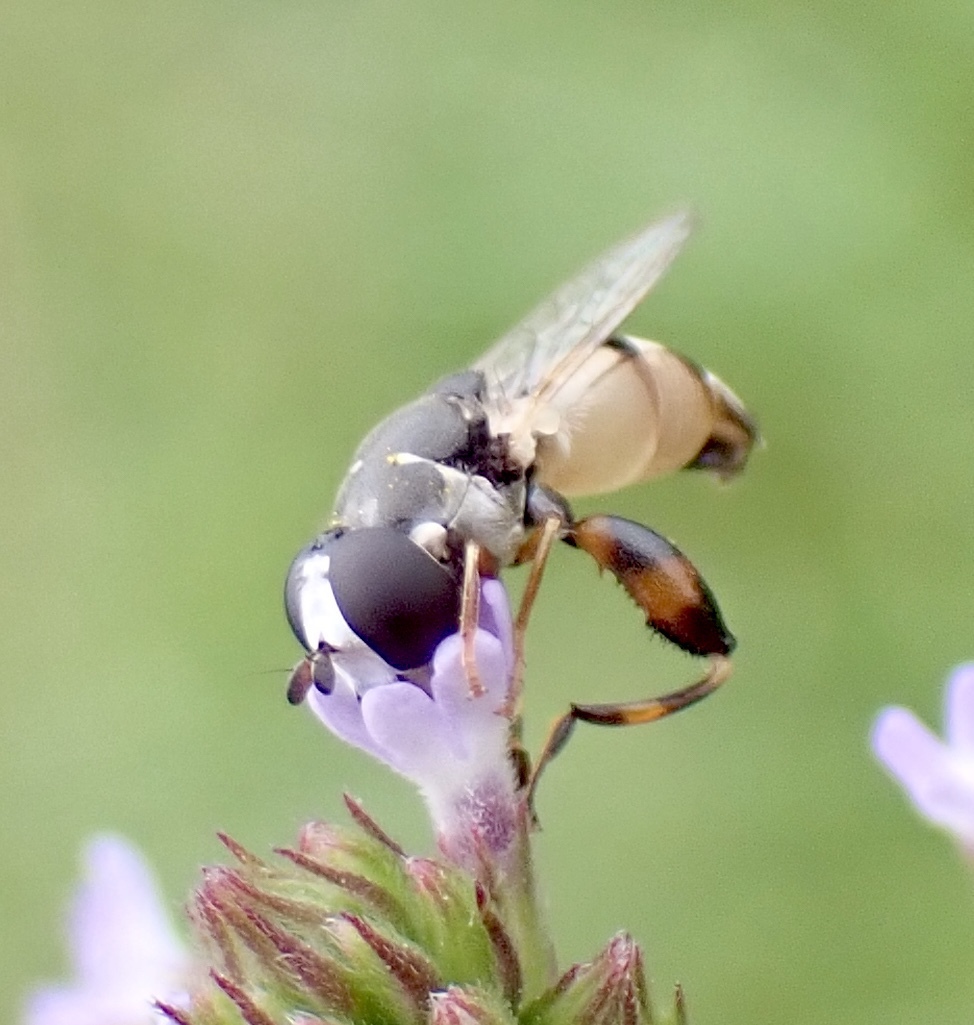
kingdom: Animalia
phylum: Arthropoda
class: Insecta
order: Diptera
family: Syrphidae
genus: Syritta
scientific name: Syritta flaviventris
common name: Syrphid fly
